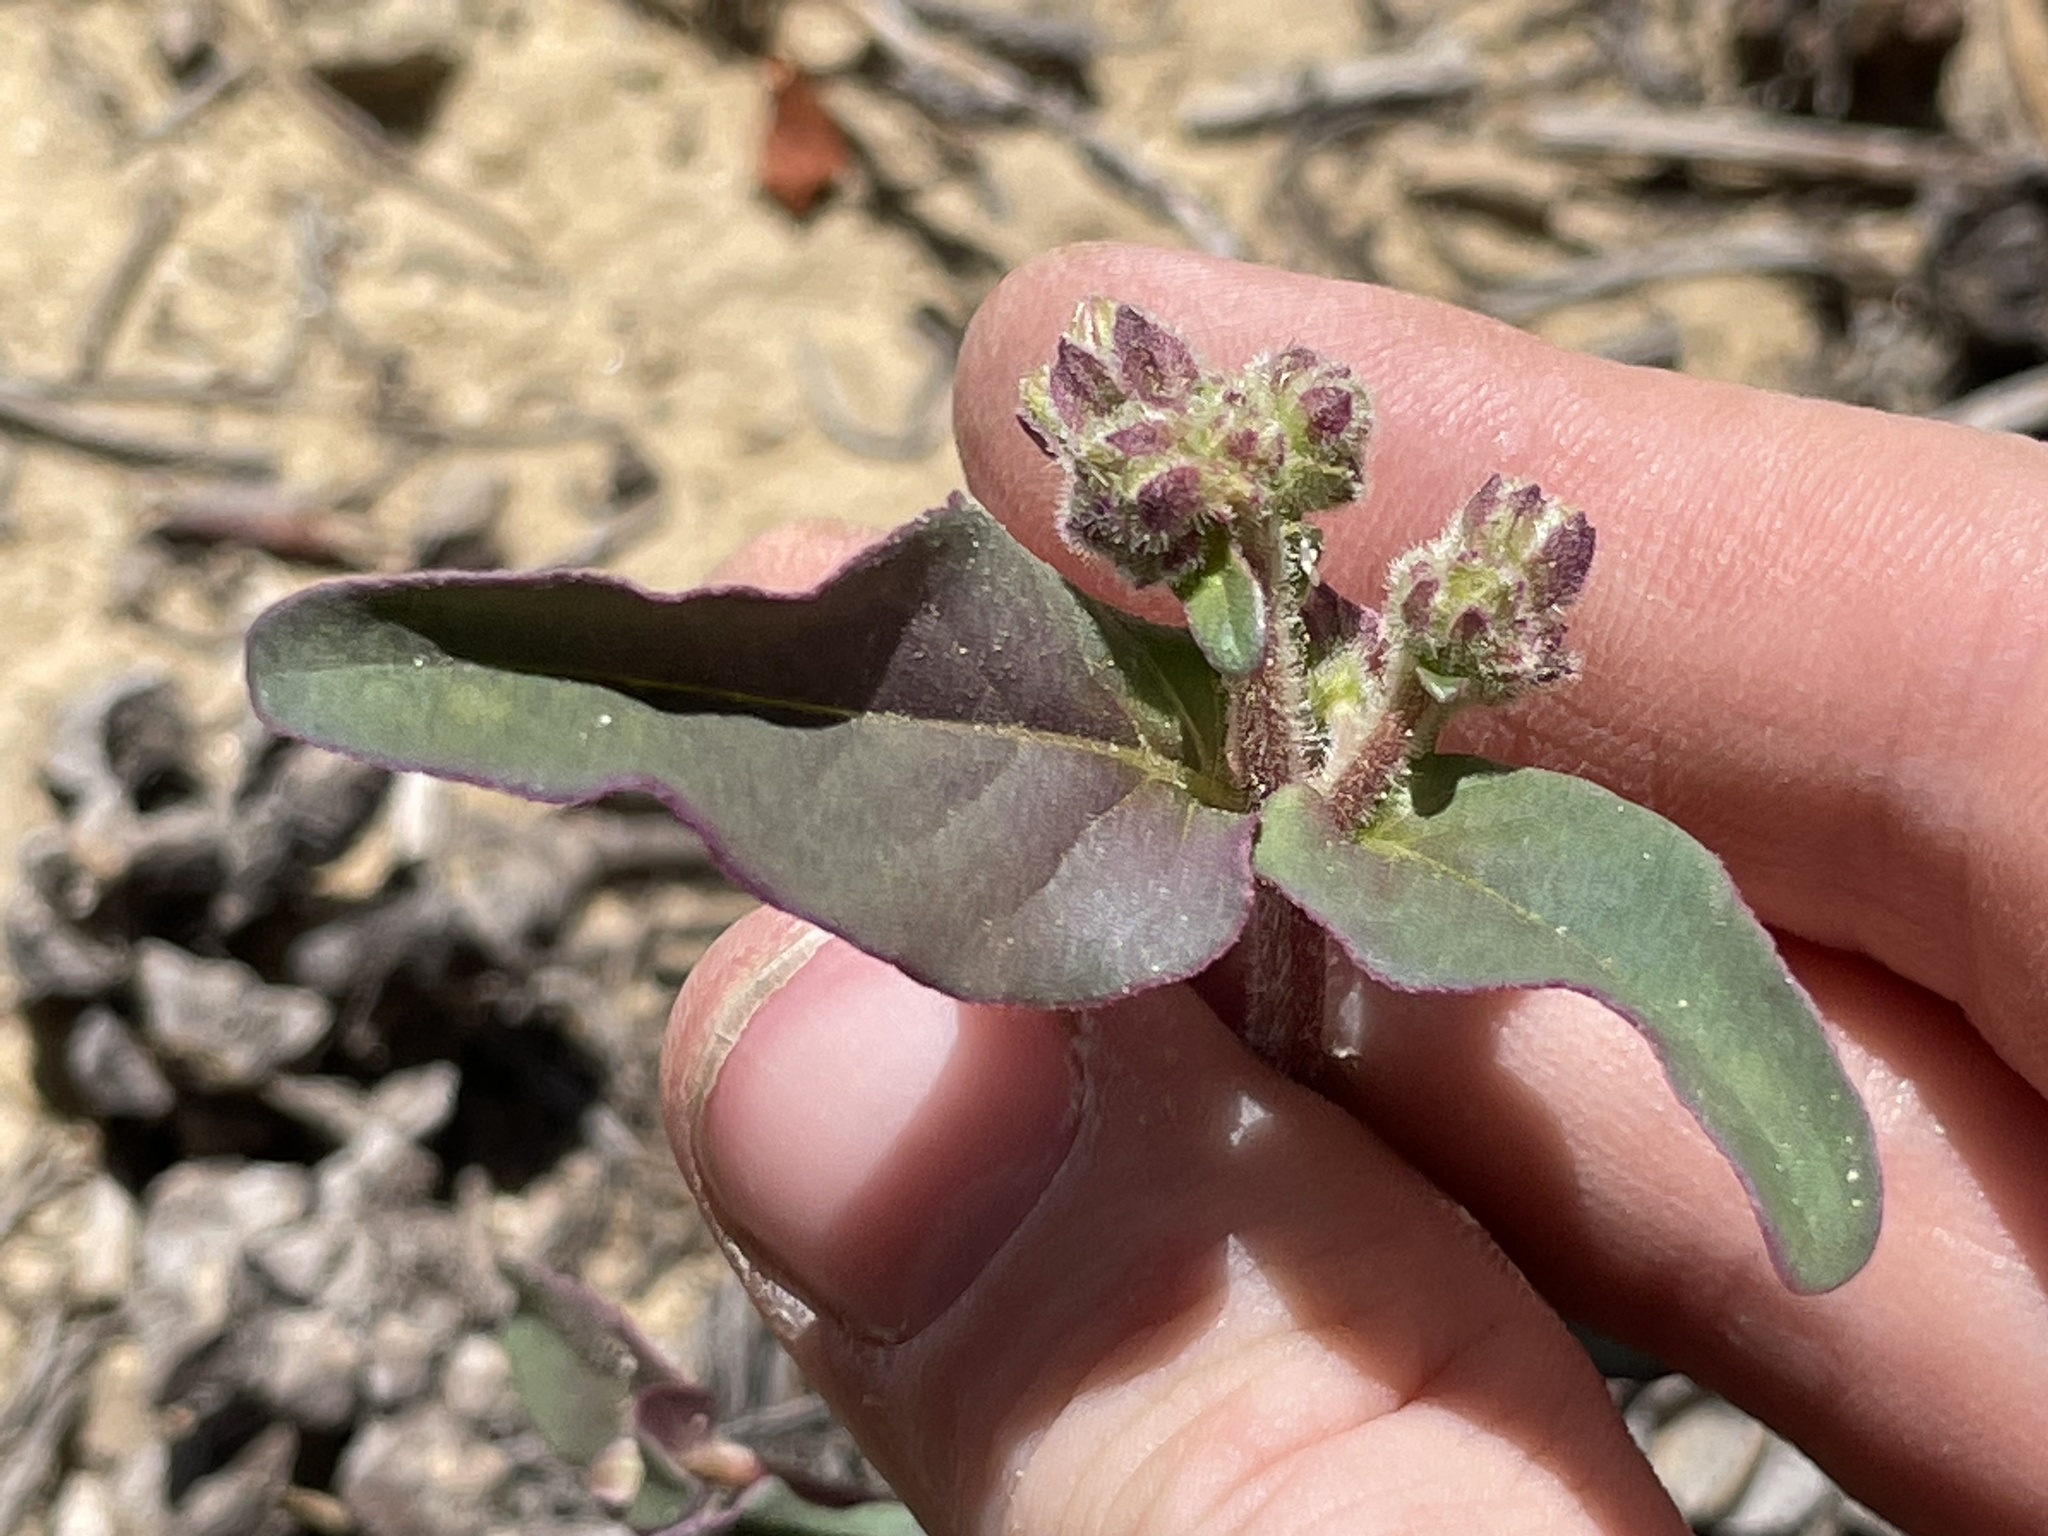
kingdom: Plantae
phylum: Tracheophyta
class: Magnoliopsida
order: Caryophyllales
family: Nyctaginaceae
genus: Mirabilis
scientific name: Mirabilis comata
